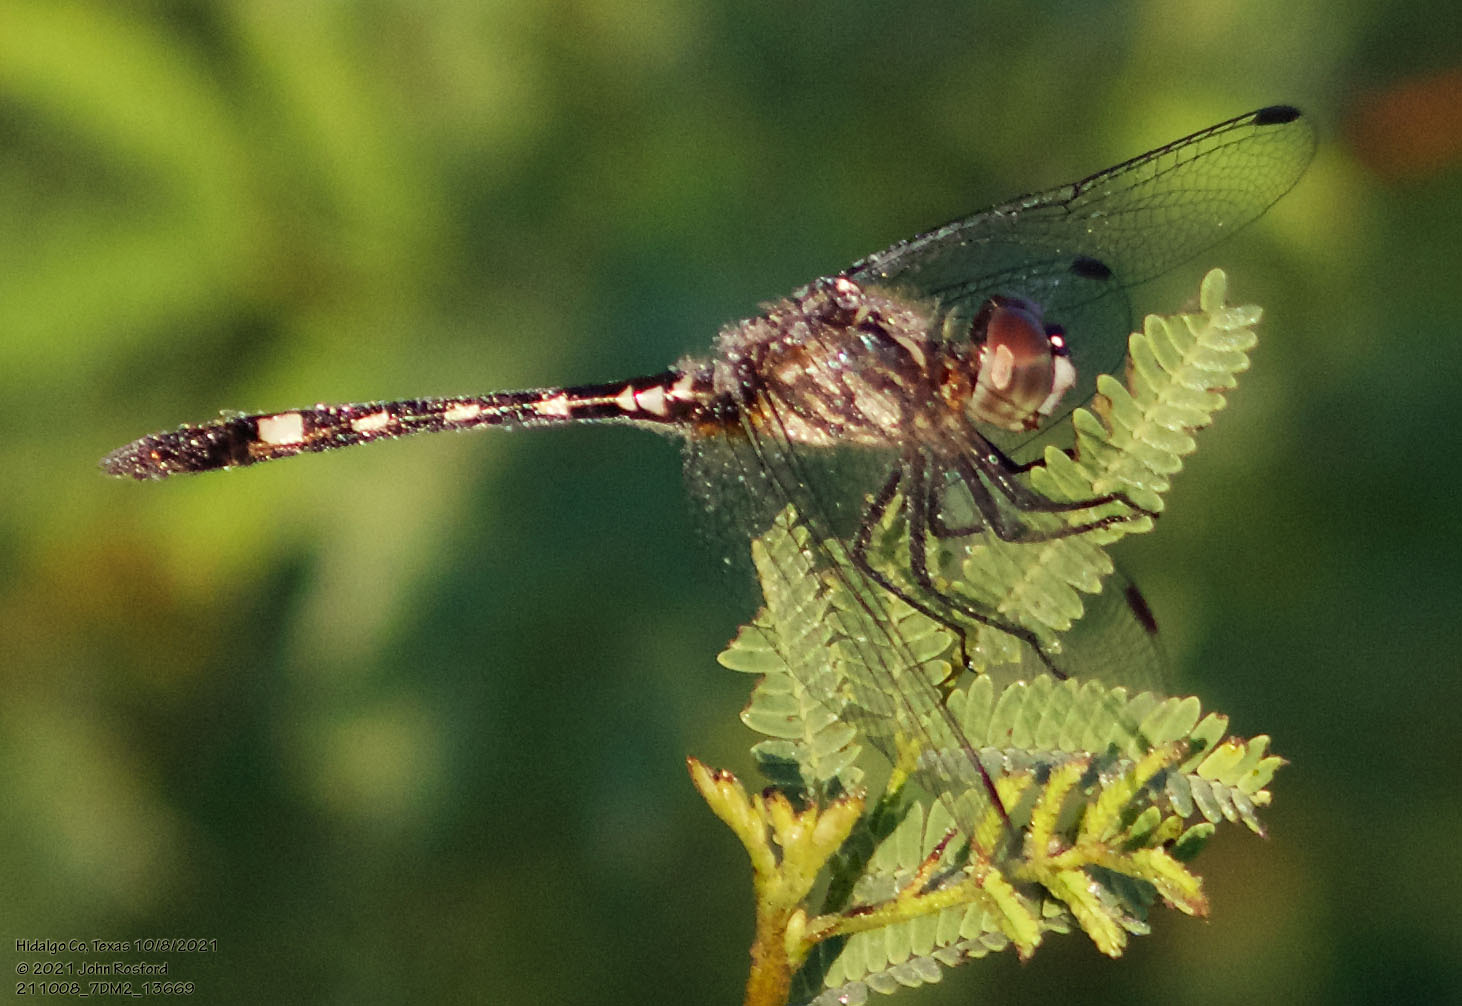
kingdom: Animalia
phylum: Arthropoda
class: Insecta
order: Odonata
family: Libellulidae
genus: Micrathyria
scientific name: Micrathyria hagenii
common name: Thornbush dasher
